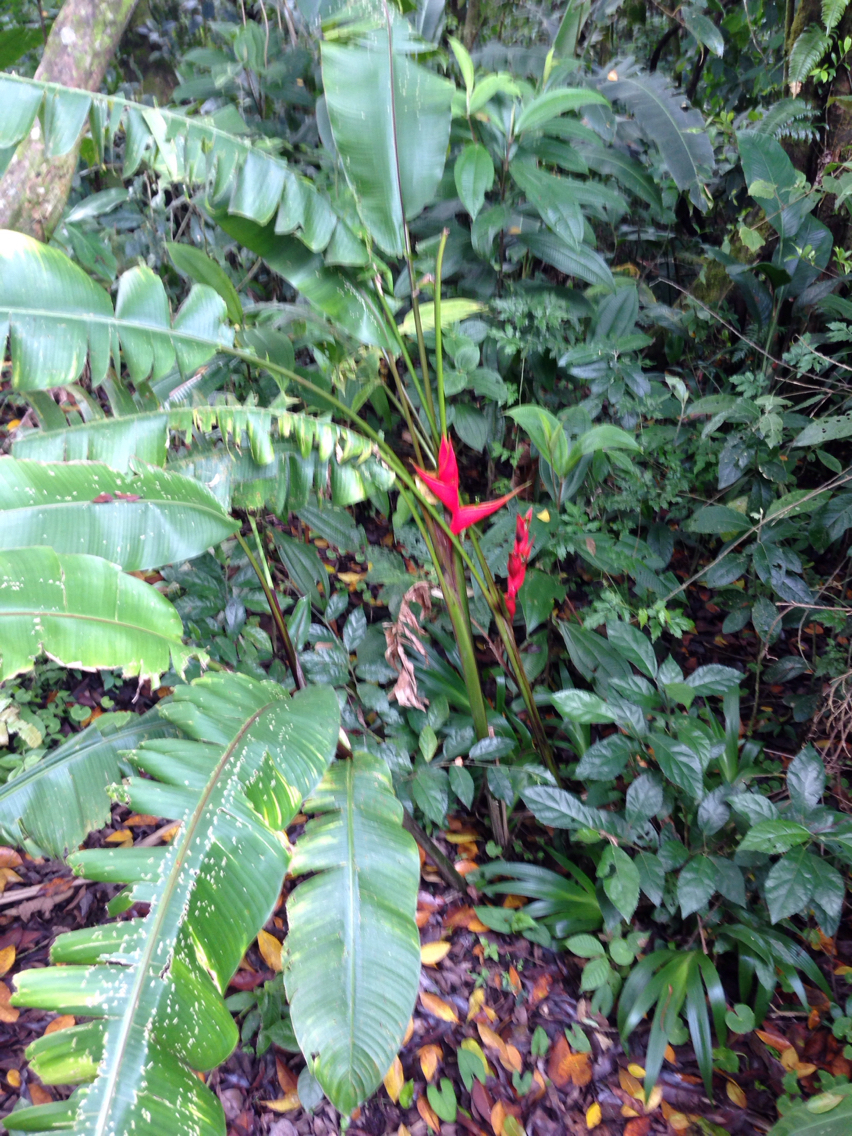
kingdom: Plantae
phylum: Tracheophyta
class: Liliopsida
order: Zingiberales
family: Heliconiaceae
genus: Heliconia
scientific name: Heliconia bihai
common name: Macaw flower
